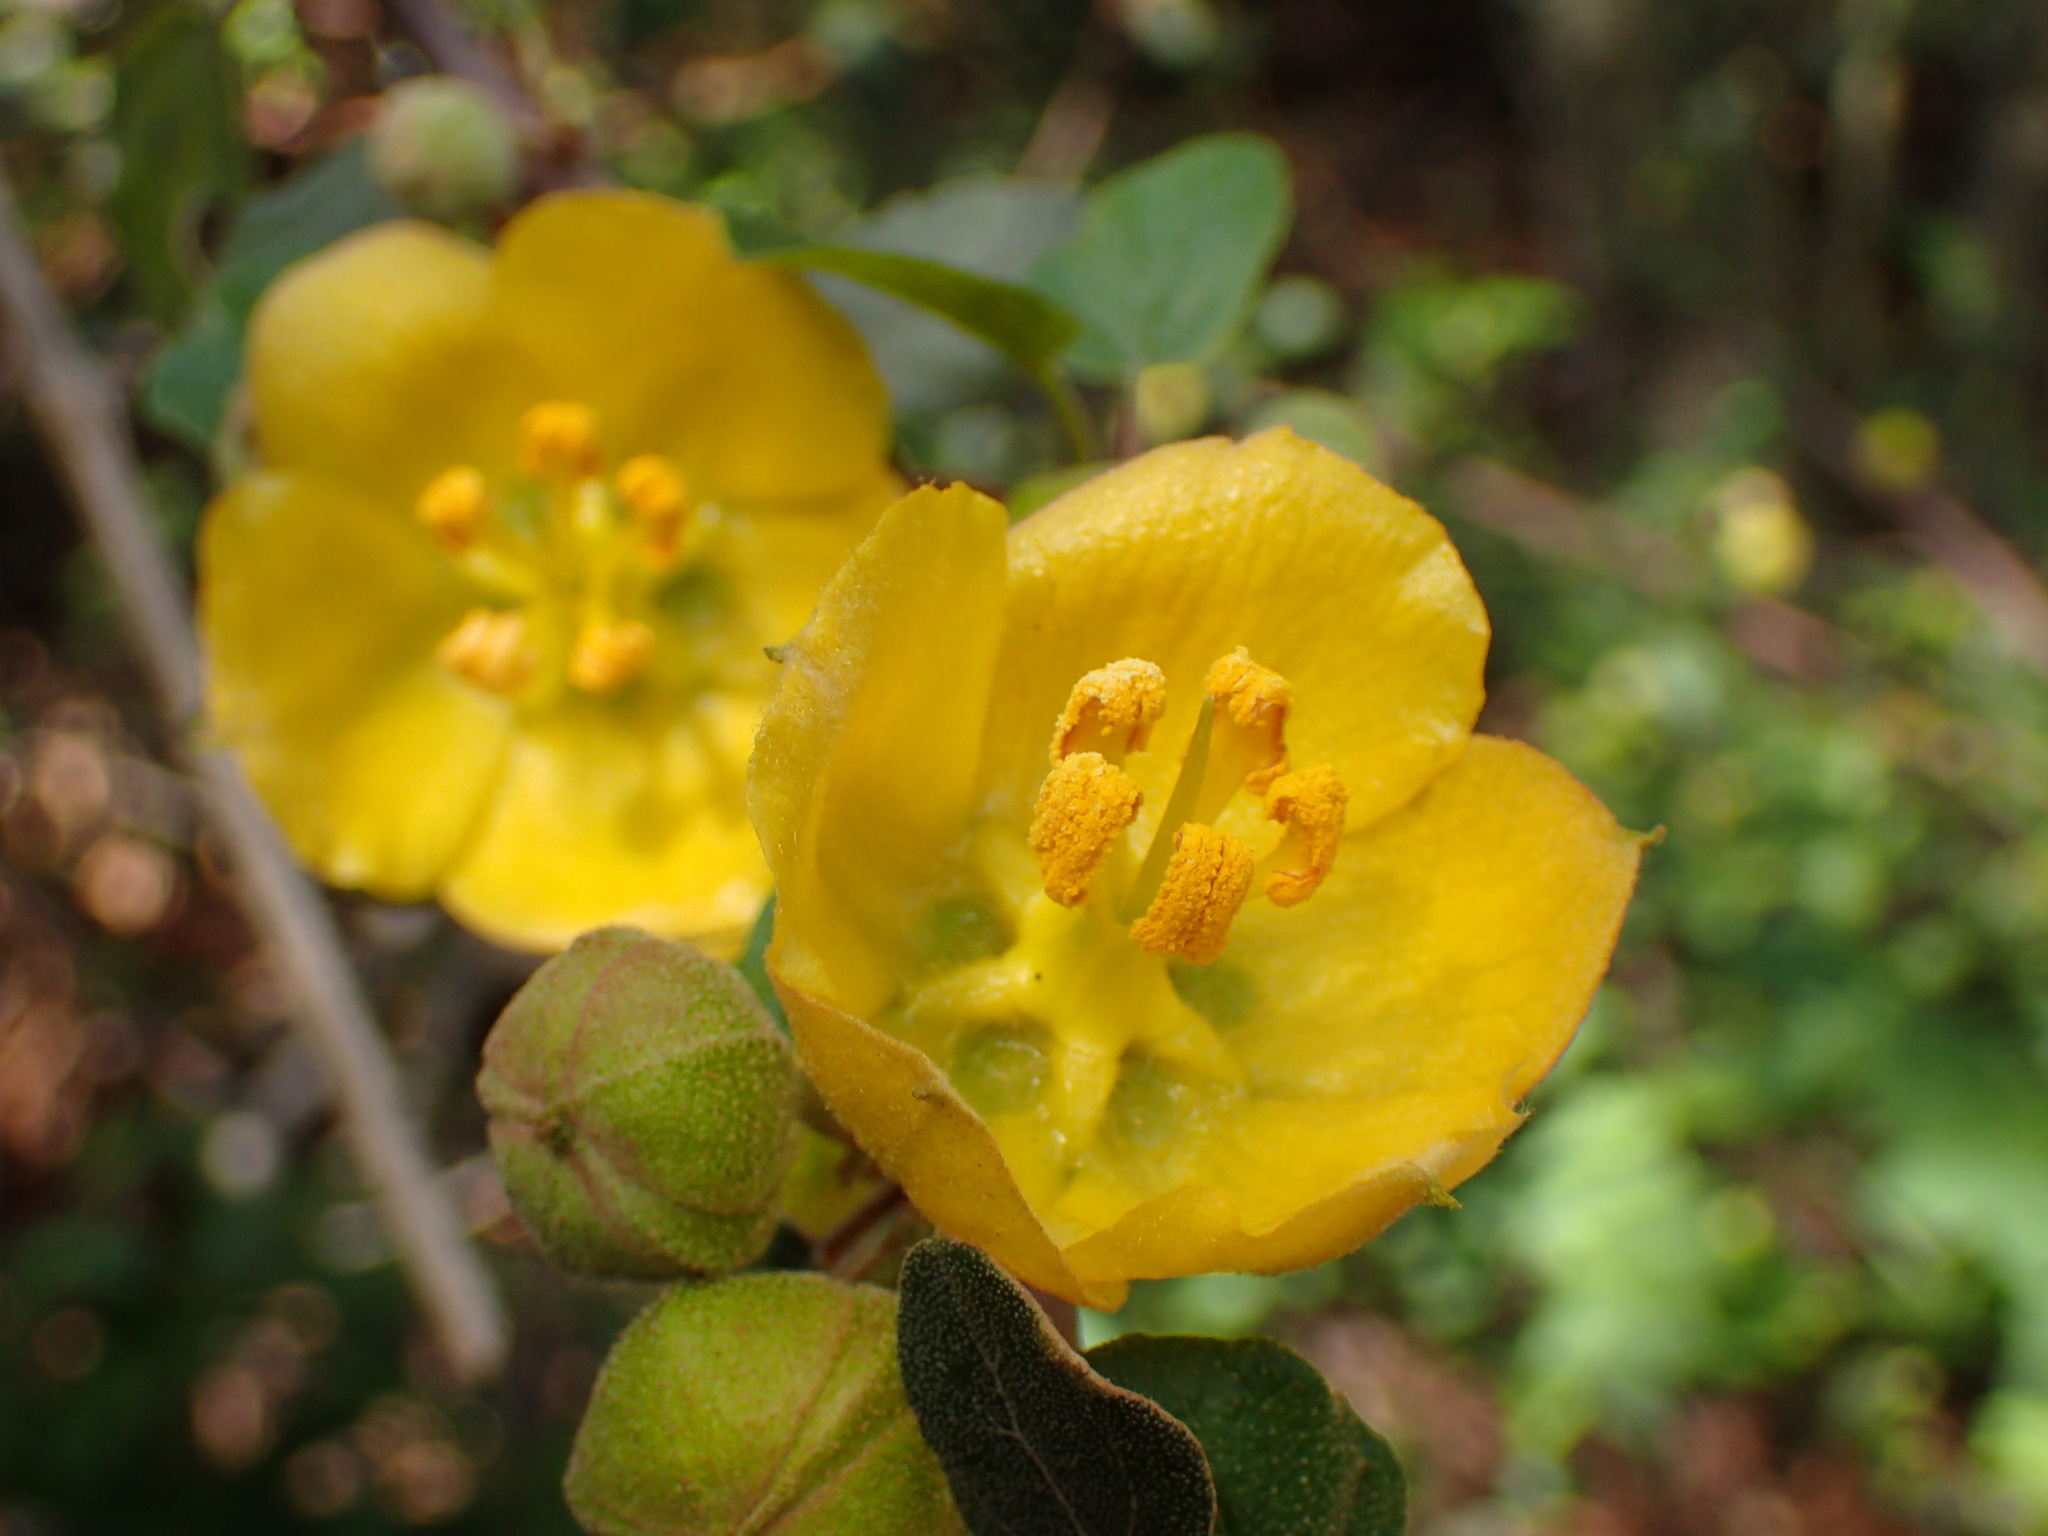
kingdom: Plantae
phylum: Tracheophyta
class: Magnoliopsida
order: Malvales
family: Malvaceae
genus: Fremontodendron
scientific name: Fremontodendron californicum
